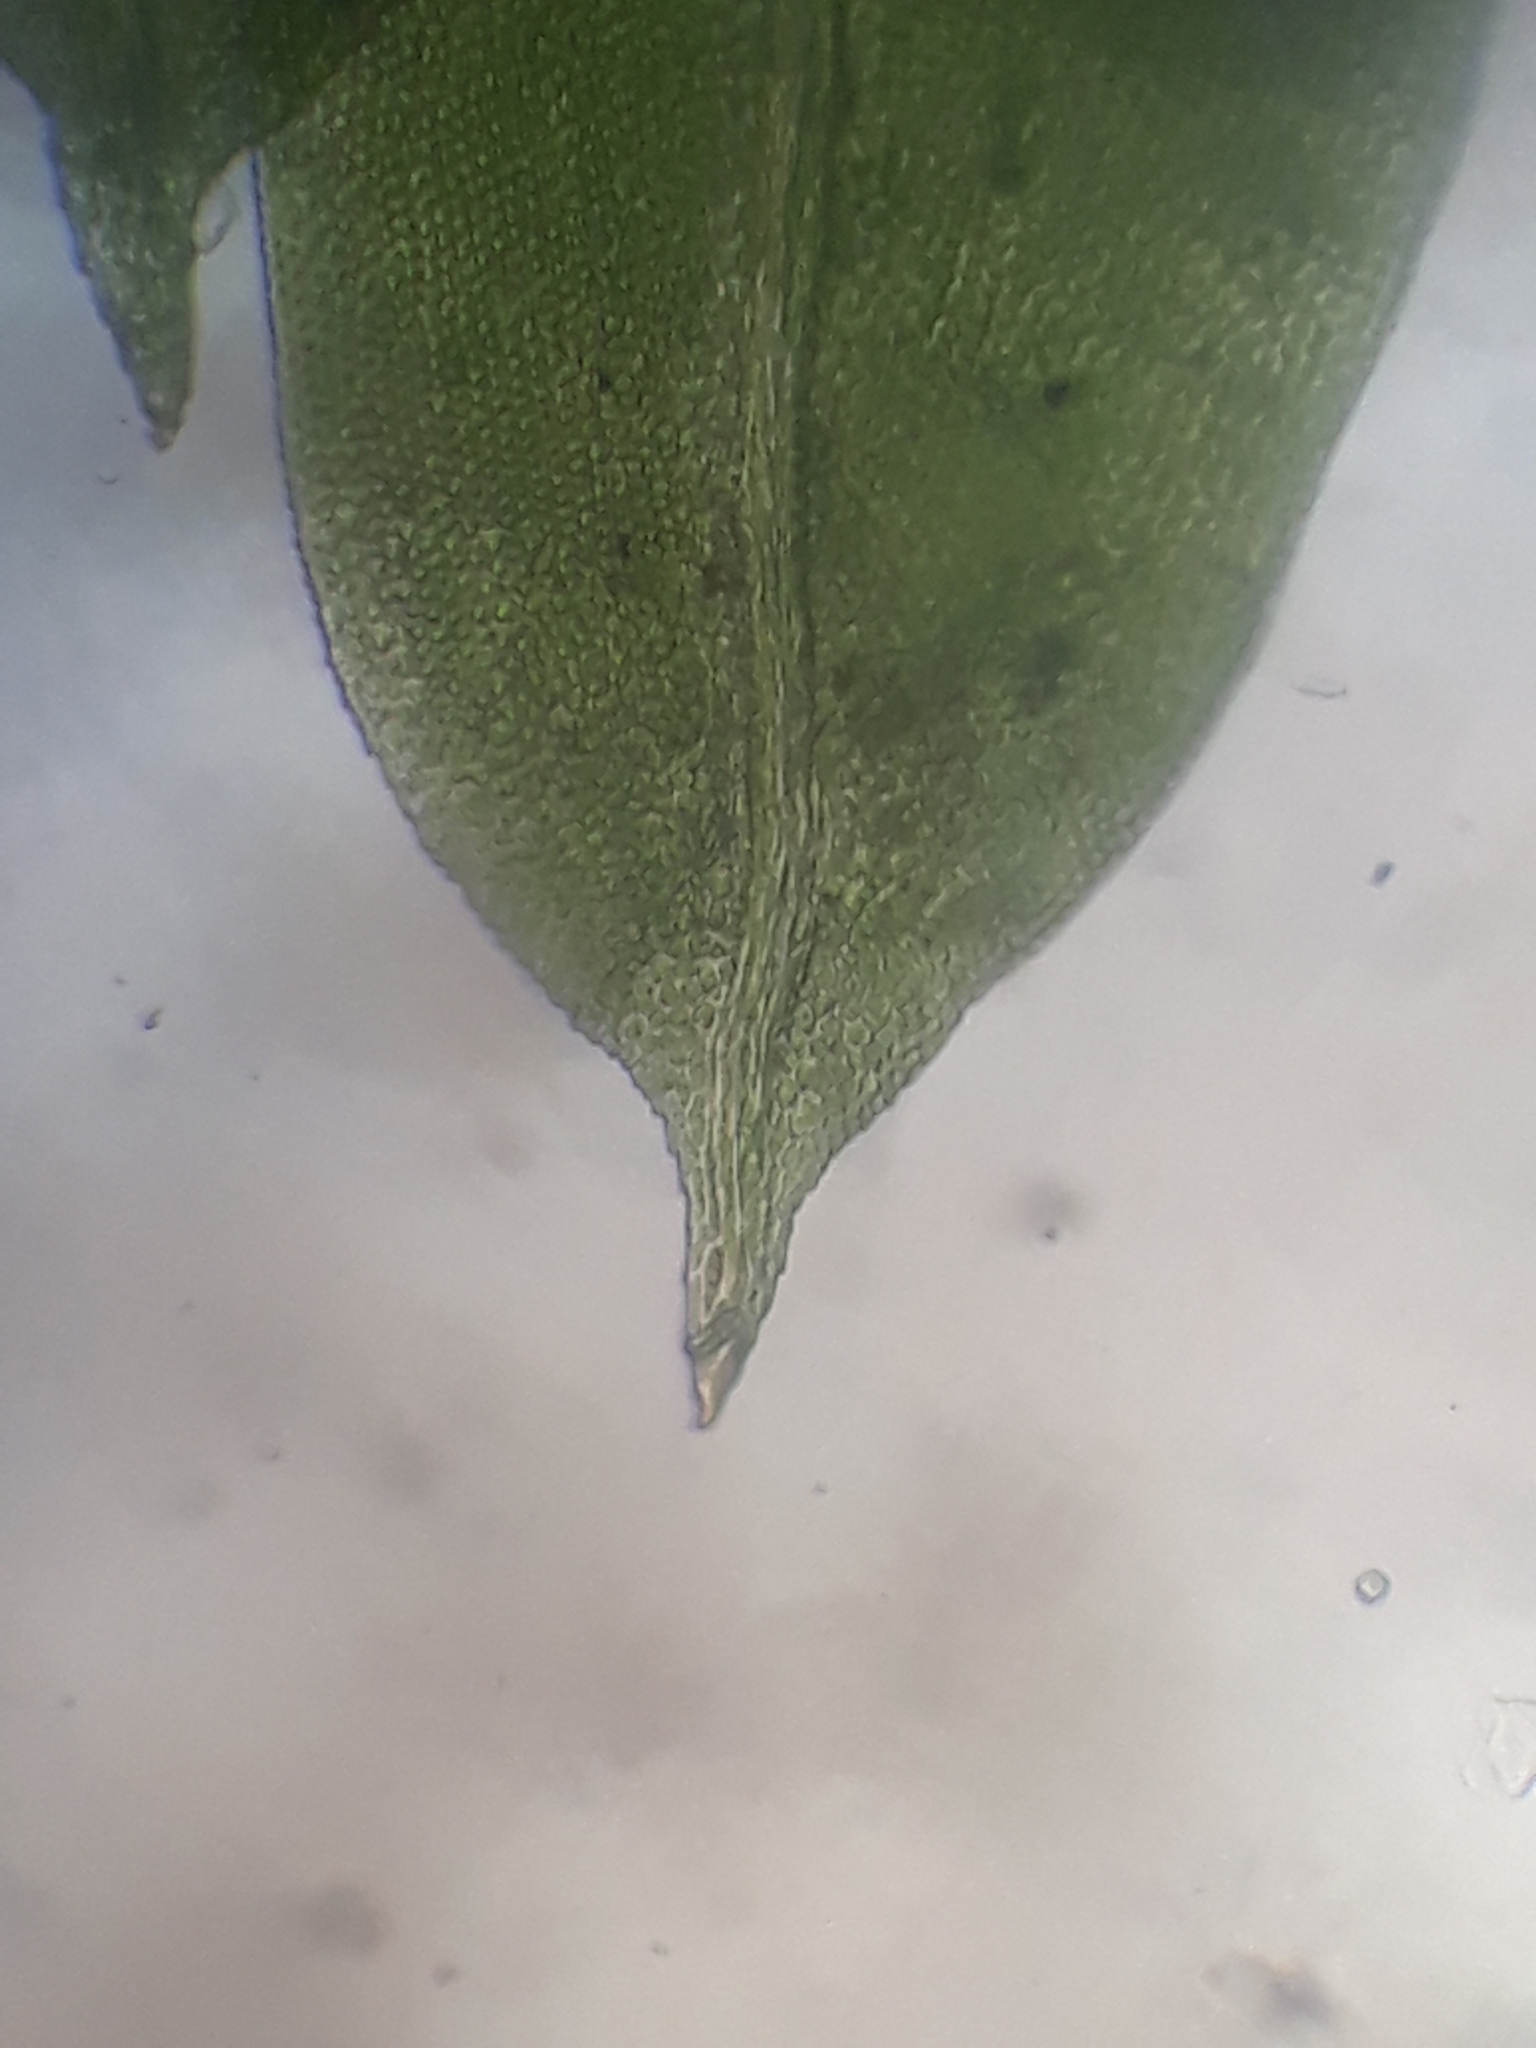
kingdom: Plantae
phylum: Bryophyta
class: Bryopsida
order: Dicranales
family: Fissidentaceae
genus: Fissidens
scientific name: Fissidens taxifolius
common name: Yew-leaved pocket moss
